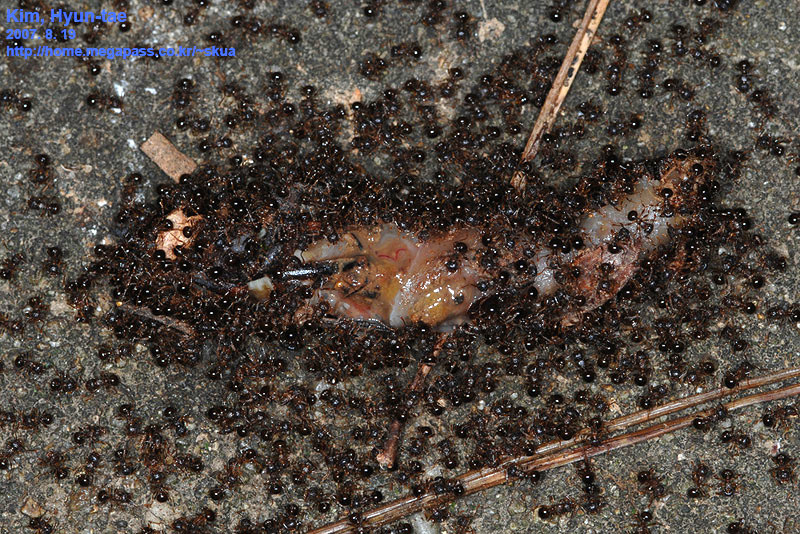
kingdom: Animalia
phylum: Arthropoda
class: Insecta
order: Hymenoptera
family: Formicidae
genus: Pristomyrmex
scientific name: Pristomyrmex punctatus
